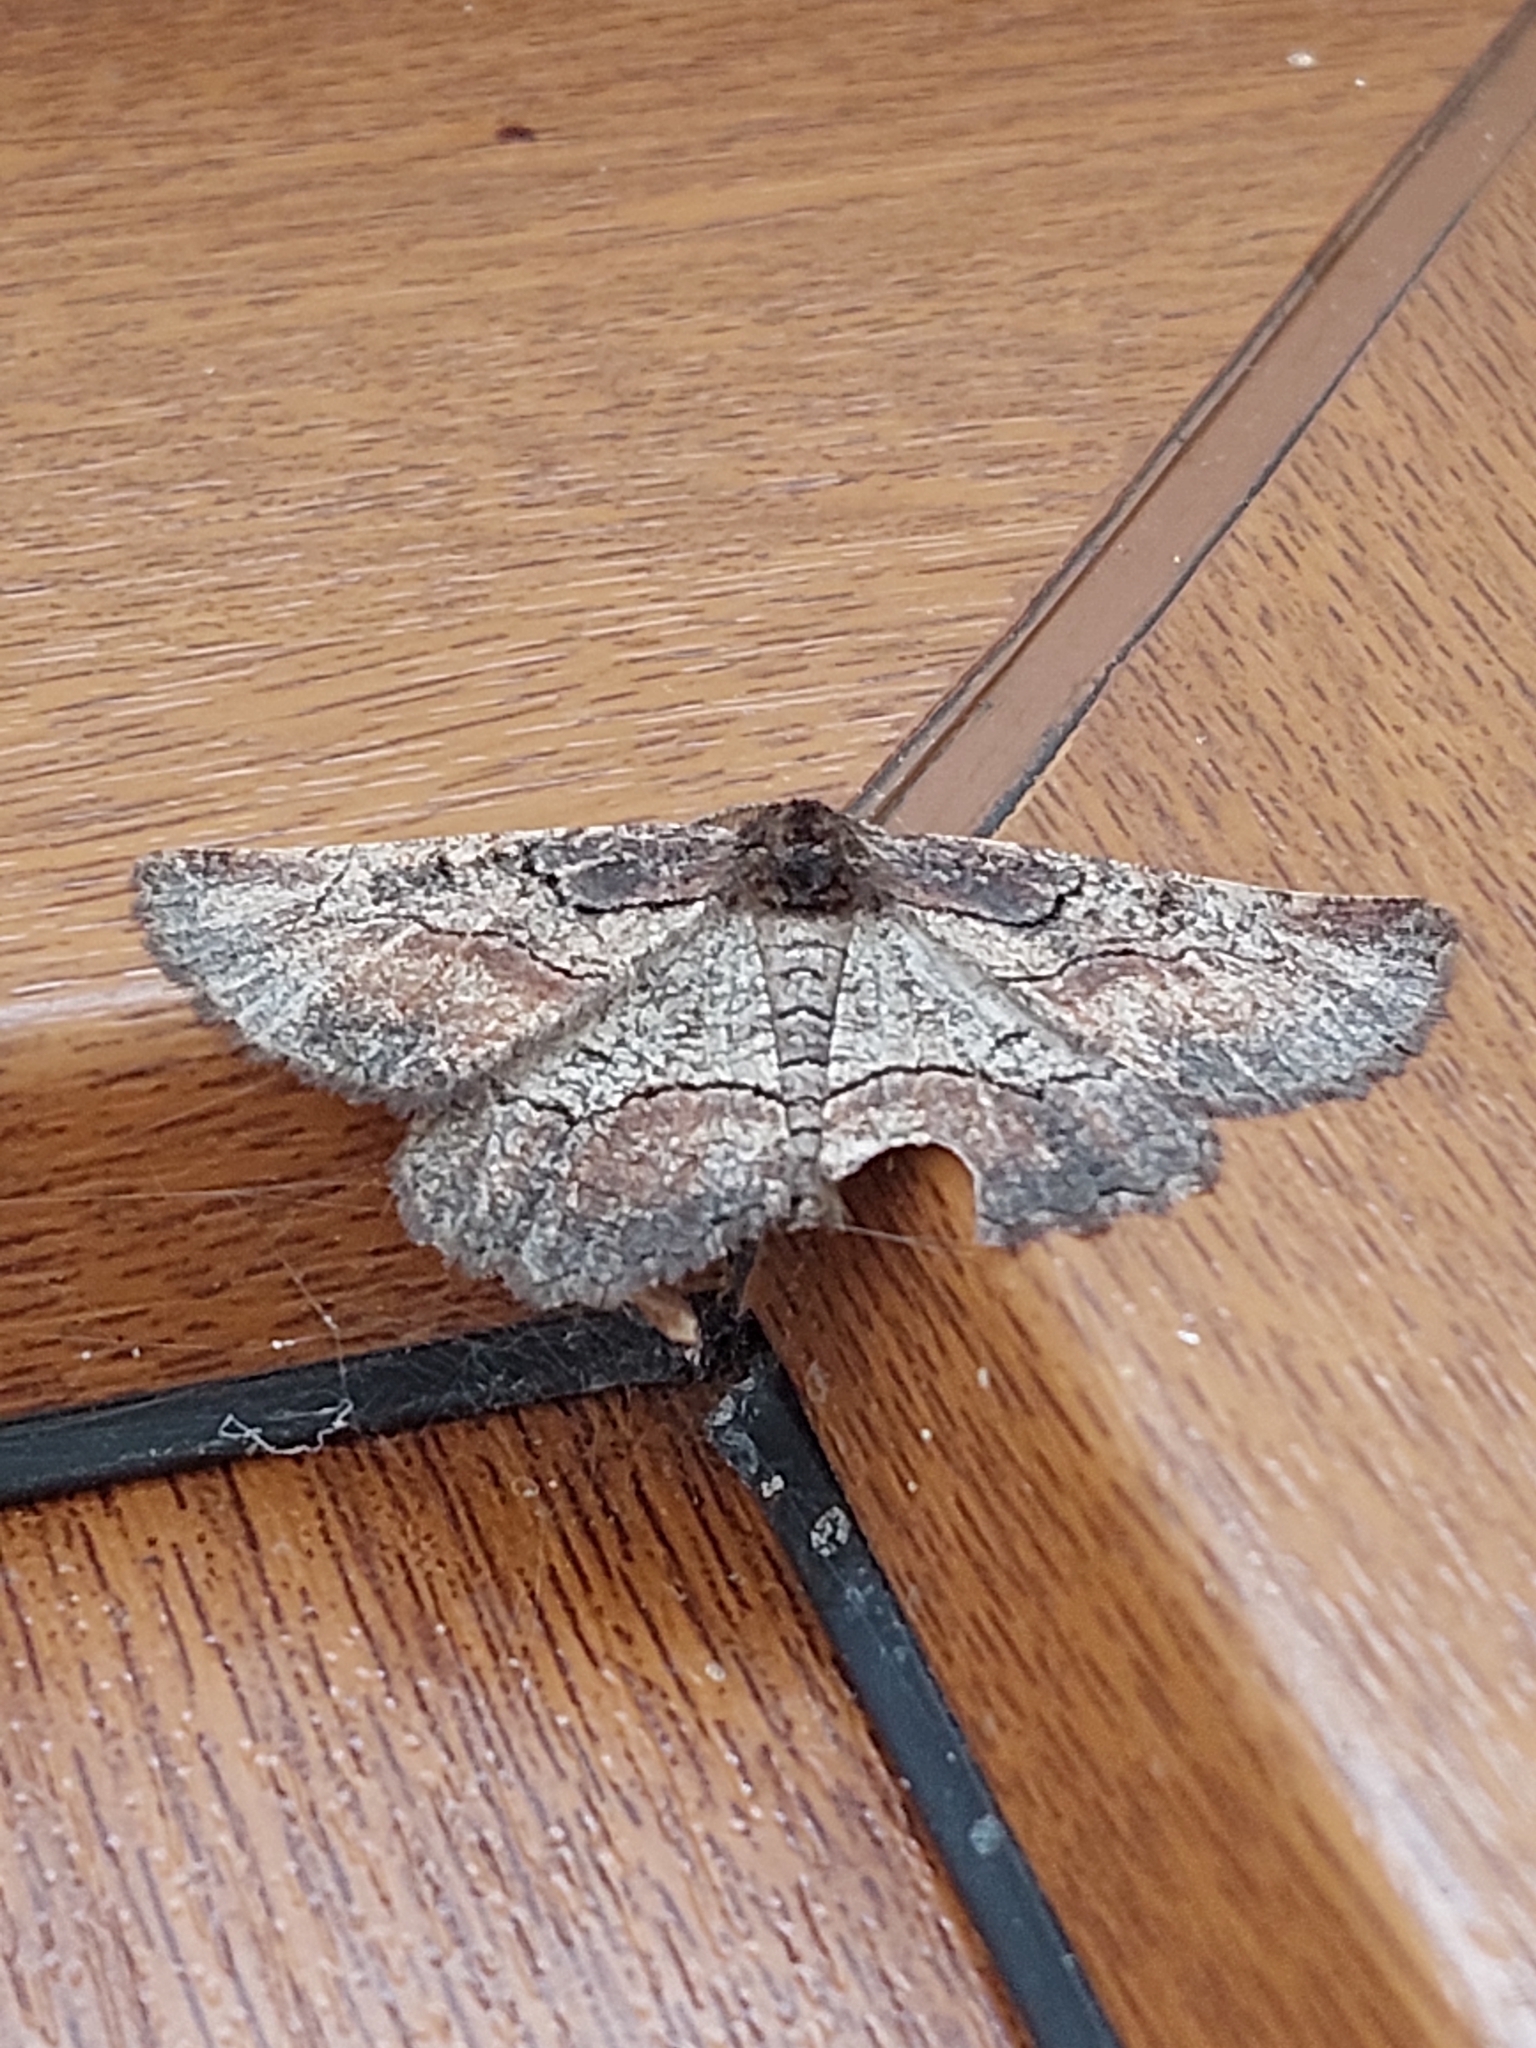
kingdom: Animalia
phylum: Arthropoda
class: Insecta
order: Lepidoptera
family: Geometridae
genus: Nychiodes
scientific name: Nychiodes waltheri
